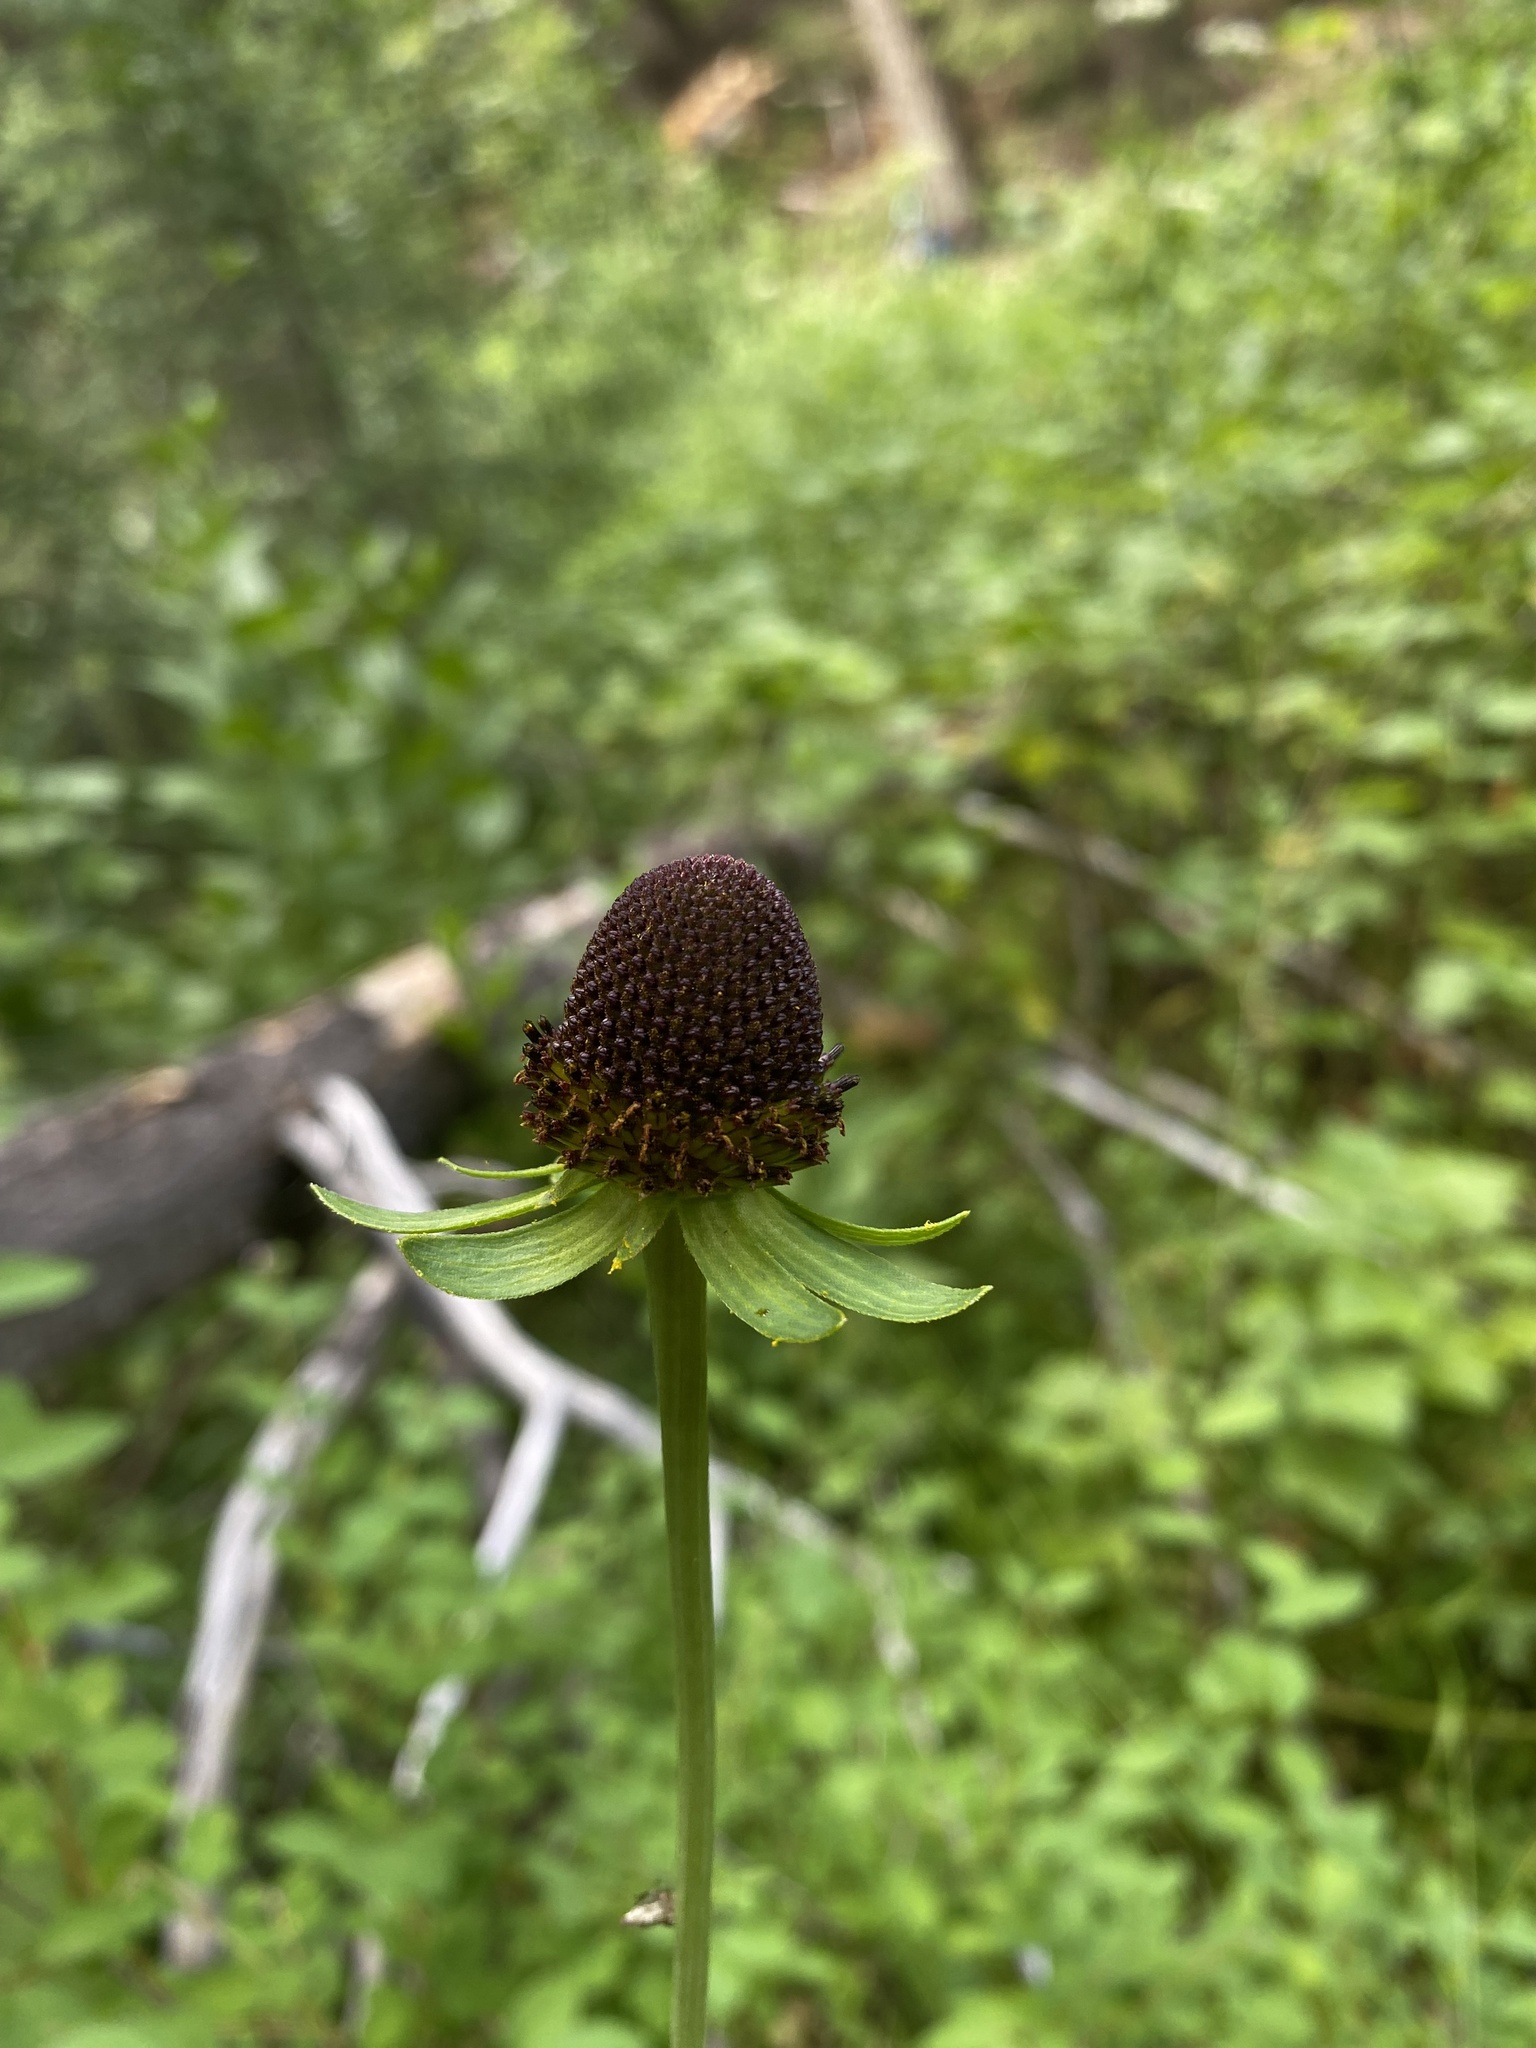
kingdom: Plantae
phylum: Tracheophyta
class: Magnoliopsida
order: Asterales
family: Asteraceae
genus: Rudbeckia
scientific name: Rudbeckia occidentalis
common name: Western coneflower
